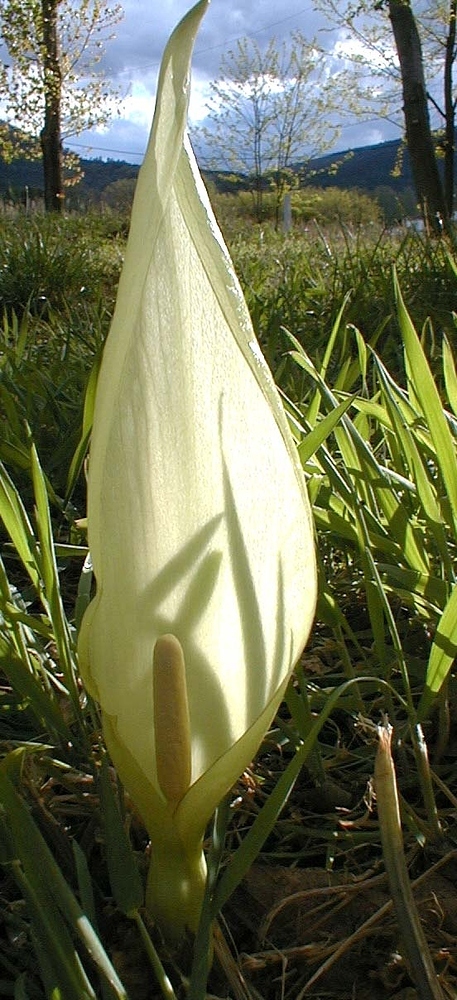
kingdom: Plantae
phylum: Tracheophyta
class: Liliopsida
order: Alismatales
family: Araceae
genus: Arum
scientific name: Arum italicum
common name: Italian lords-and-ladies
